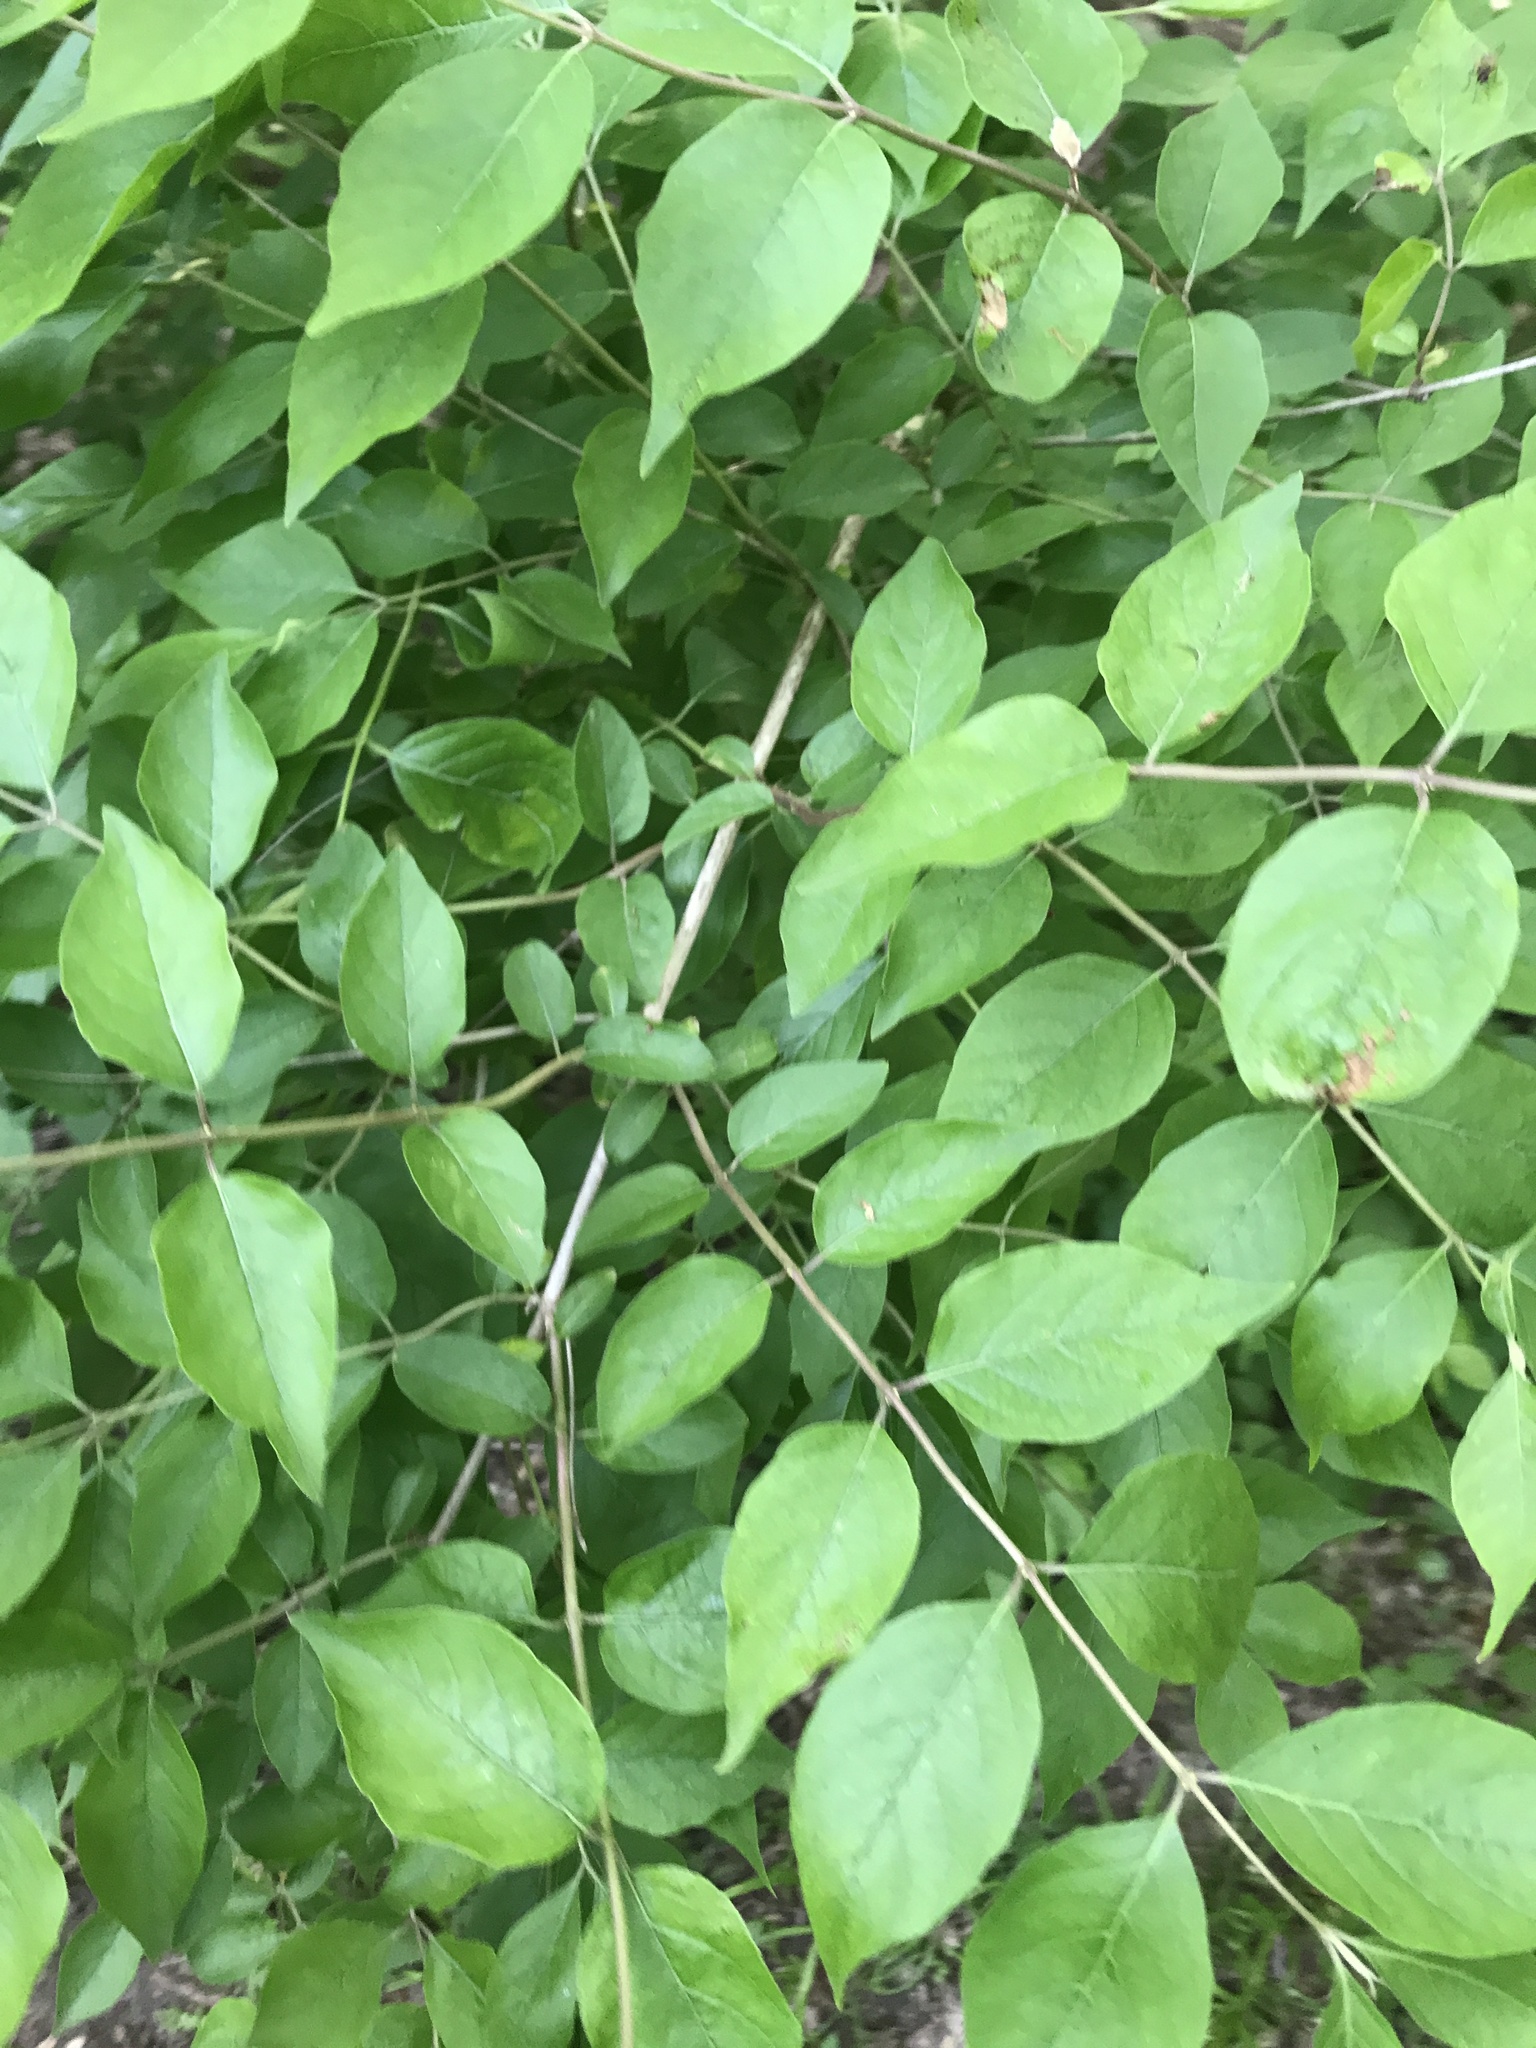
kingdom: Plantae
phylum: Tracheophyta
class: Magnoliopsida
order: Dipsacales
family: Caprifoliaceae
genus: Lonicera
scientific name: Lonicera maackii
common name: Amur honeysuckle
